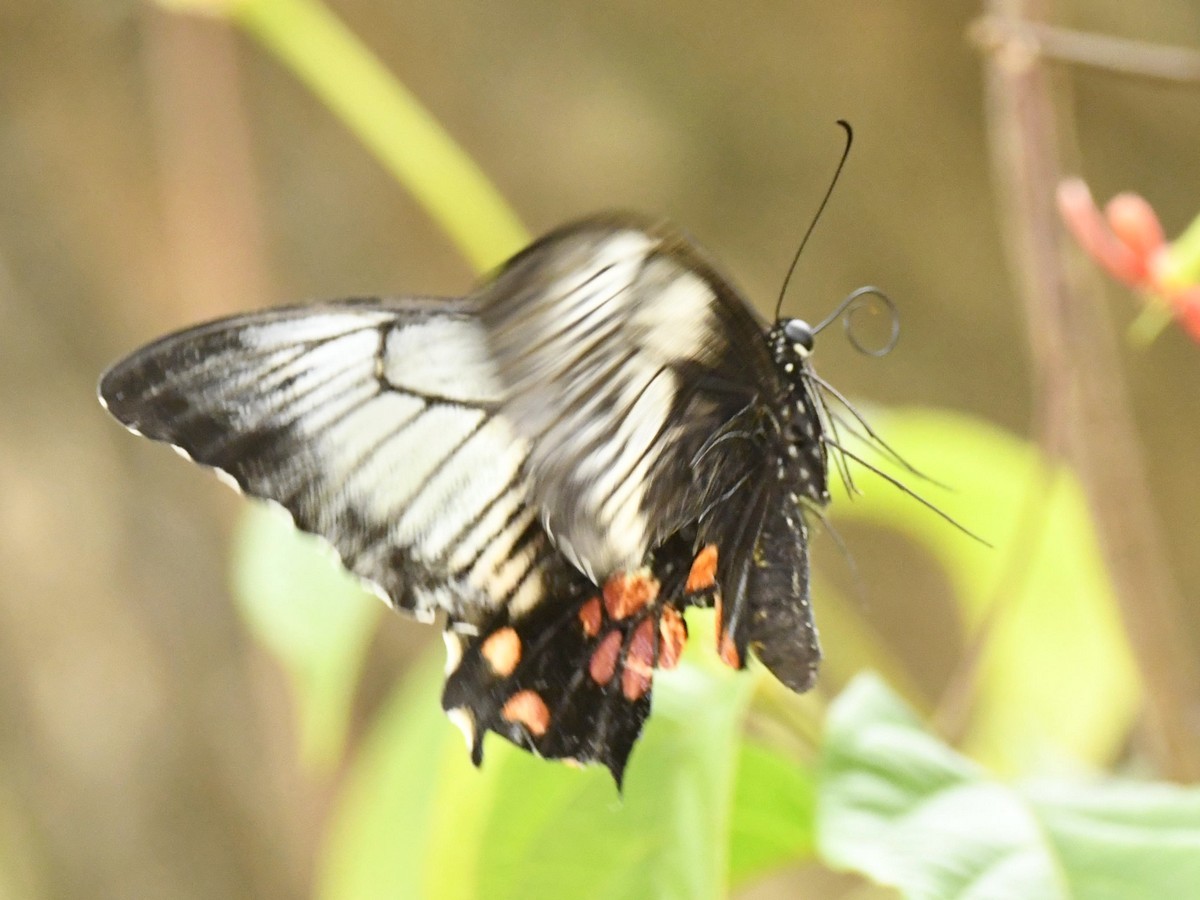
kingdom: Animalia
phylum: Arthropoda
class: Insecta
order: Lepidoptera
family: Papilionidae
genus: Papilio
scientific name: Papilio polytes
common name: Common mormon
